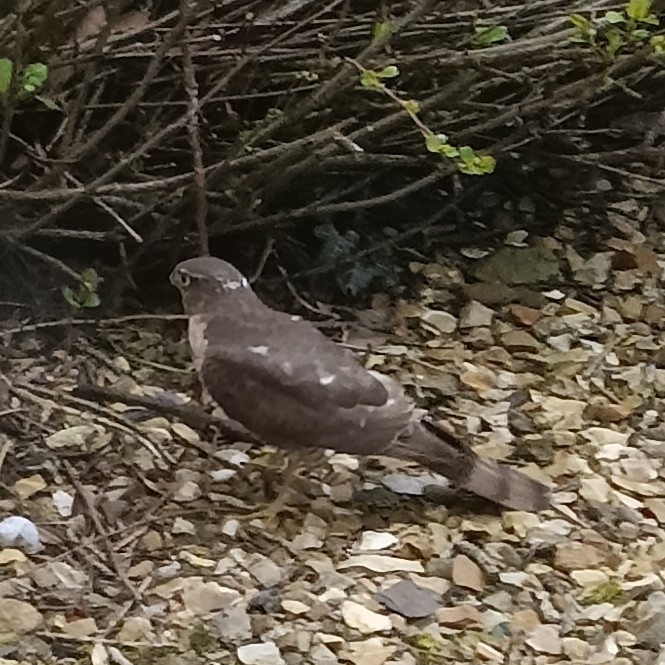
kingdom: Animalia
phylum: Chordata
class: Aves
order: Accipitriformes
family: Accipitridae
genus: Accipiter
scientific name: Accipiter nisus
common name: Eurasian sparrowhawk
